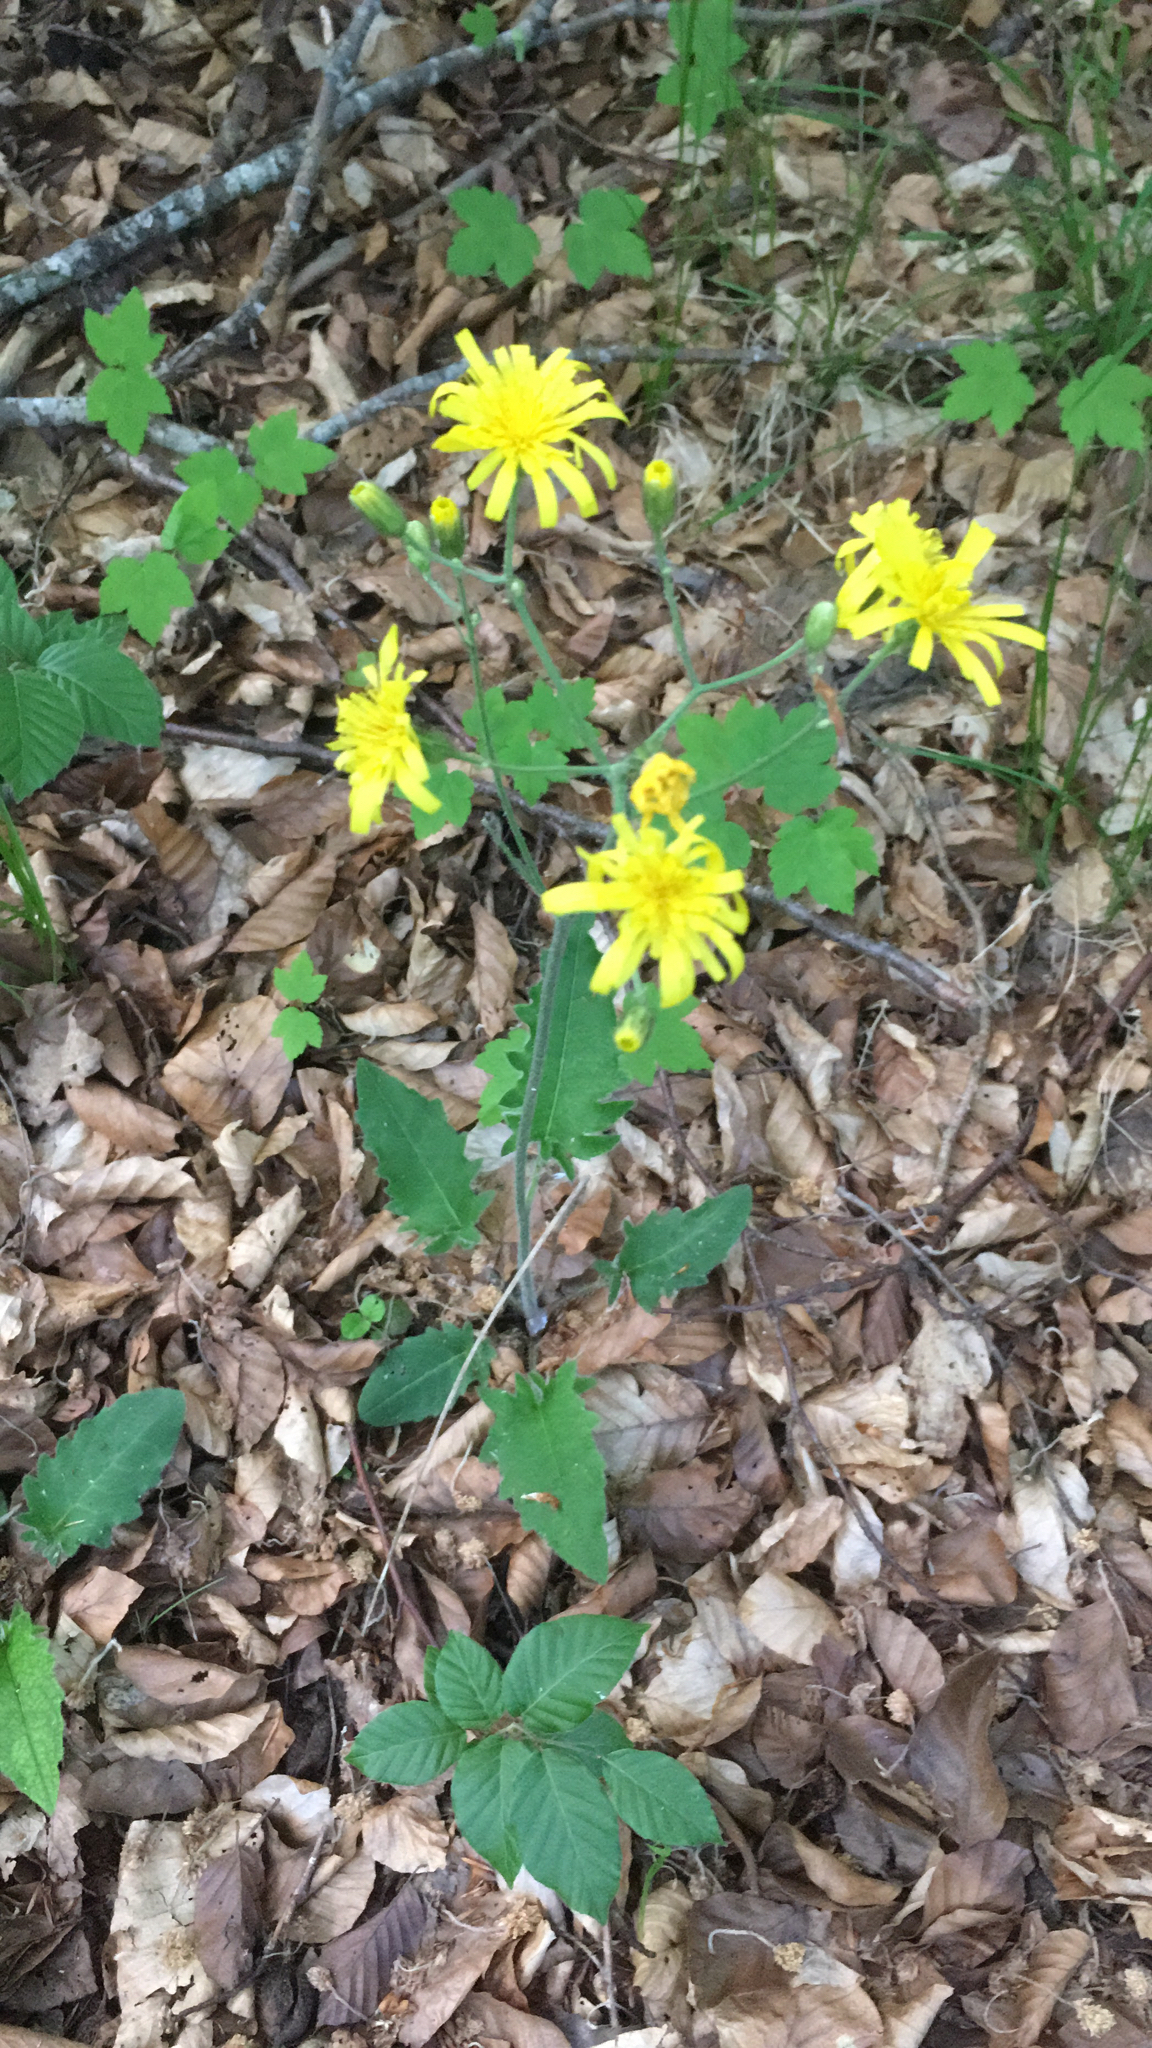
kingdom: Plantae
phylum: Tracheophyta
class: Magnoliopsida
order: Asterales
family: Asteraceae
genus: Hieracium
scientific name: Hieracium murorum
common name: Wall hawkweed
